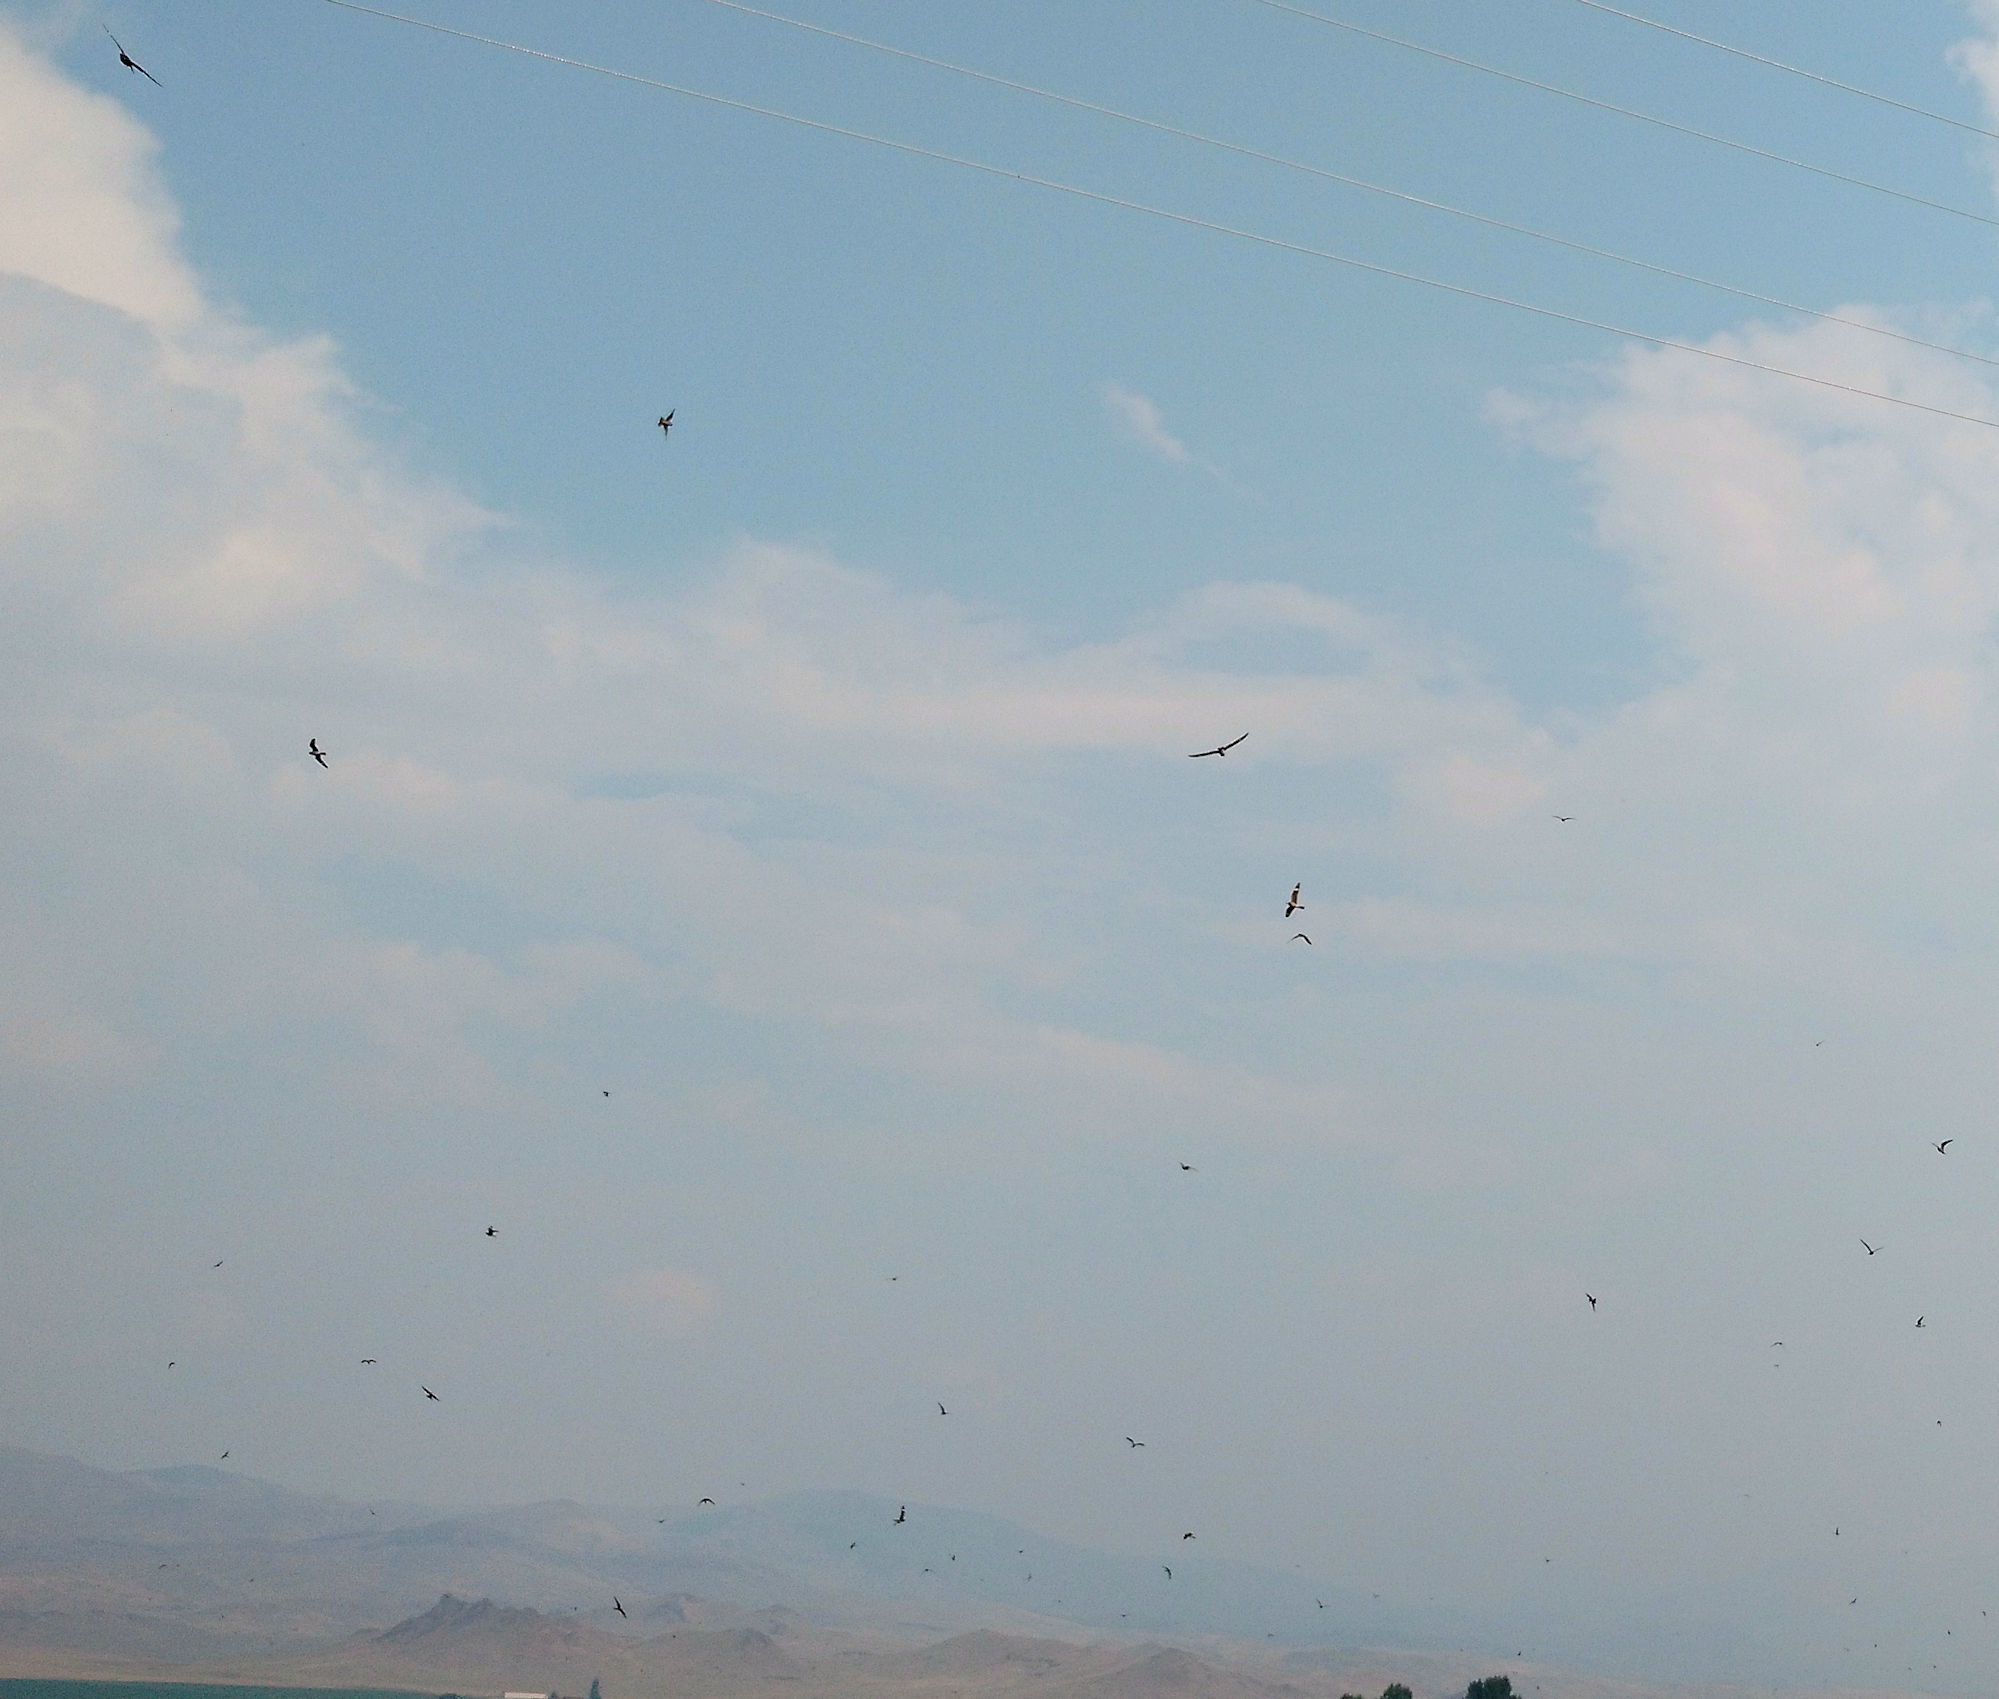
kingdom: Animalia
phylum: Chordata
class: Aves
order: Caprimulgiformes
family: Caprimulgidae
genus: Chordeiles
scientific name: Chordeiles minor
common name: Common nighthawk
